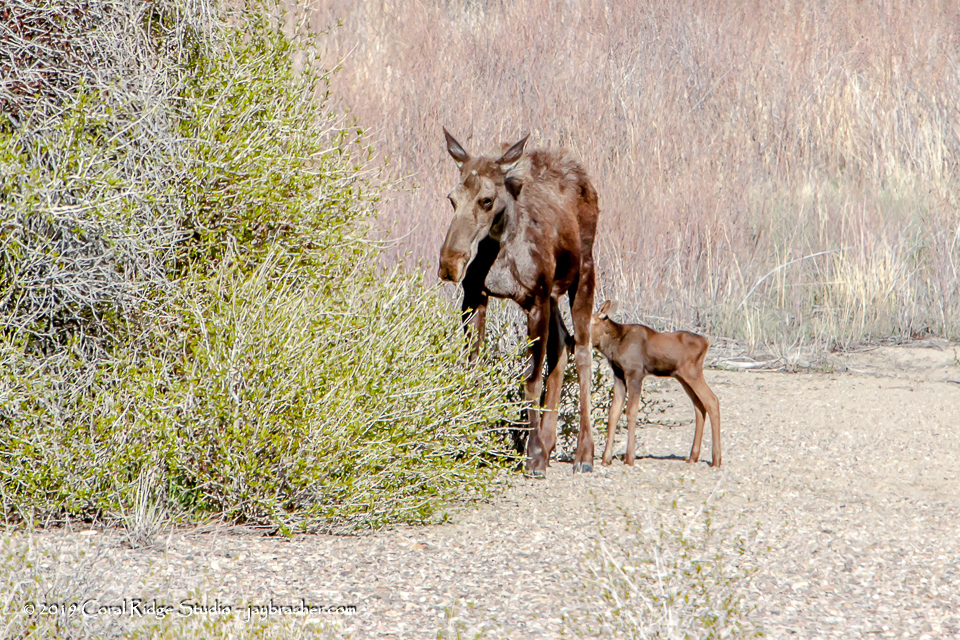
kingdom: Animalia
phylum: Chordata
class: Mammalia
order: Artiodactyla
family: Cervidae
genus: Alces
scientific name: Alces alces
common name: Moose
